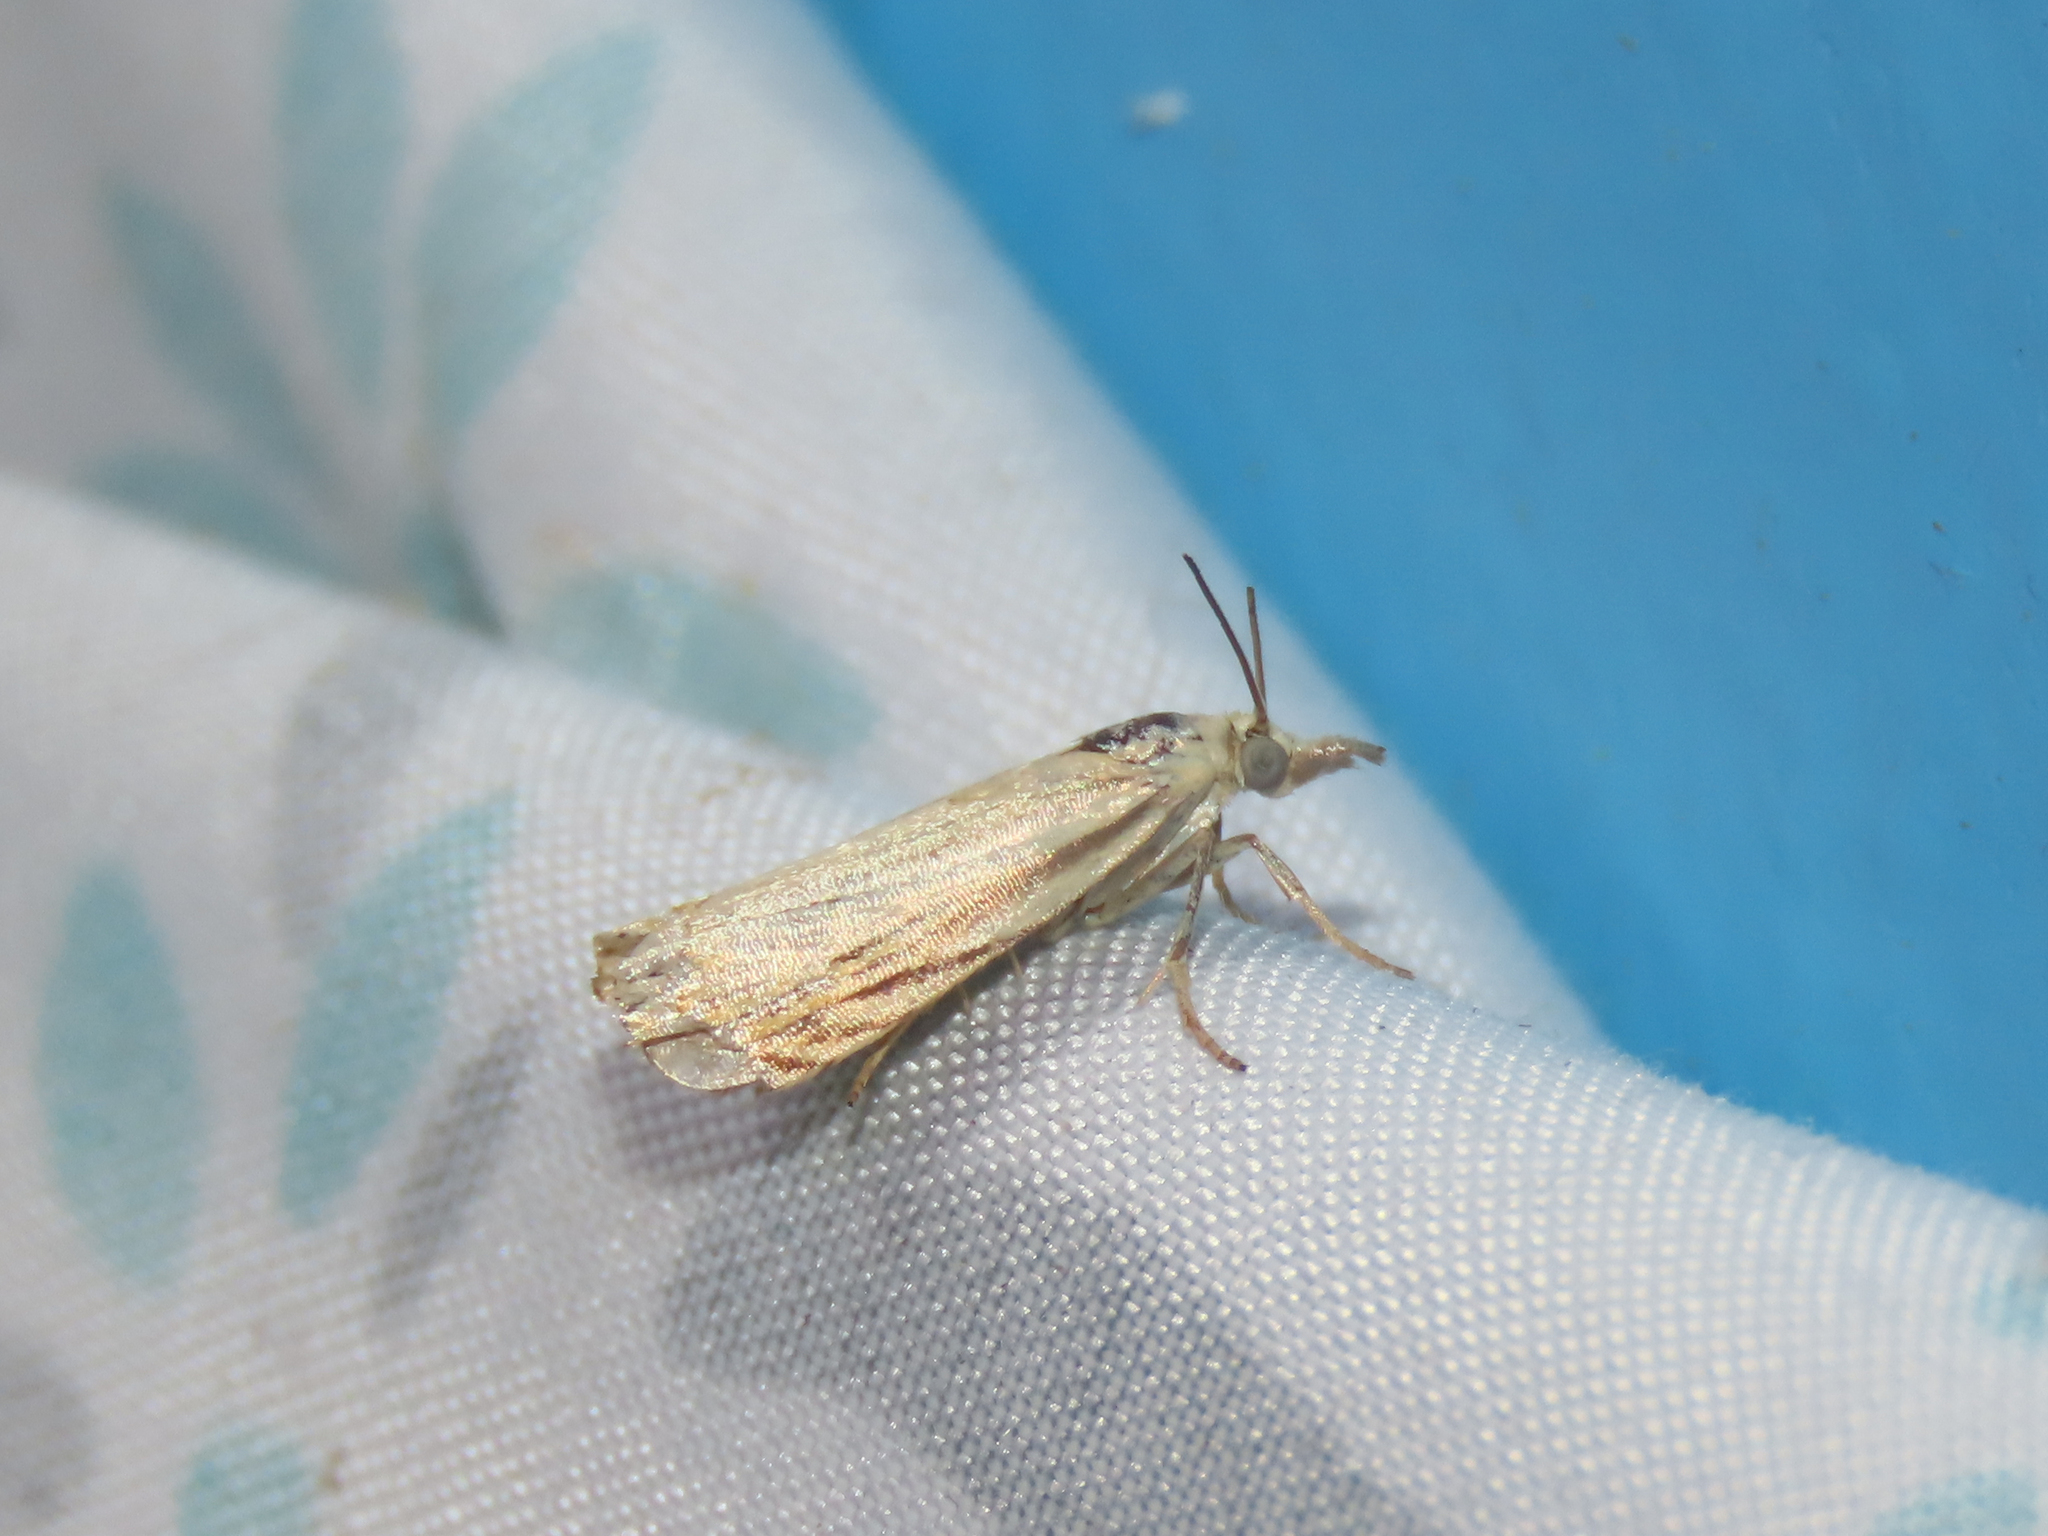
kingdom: Animalia
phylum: Arthropoda
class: Insecta
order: Lepidoptera
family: Crambidae
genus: Chrysoteuchia
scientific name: Chrysoteuchia topiarius
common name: Topiary grass-veneer
